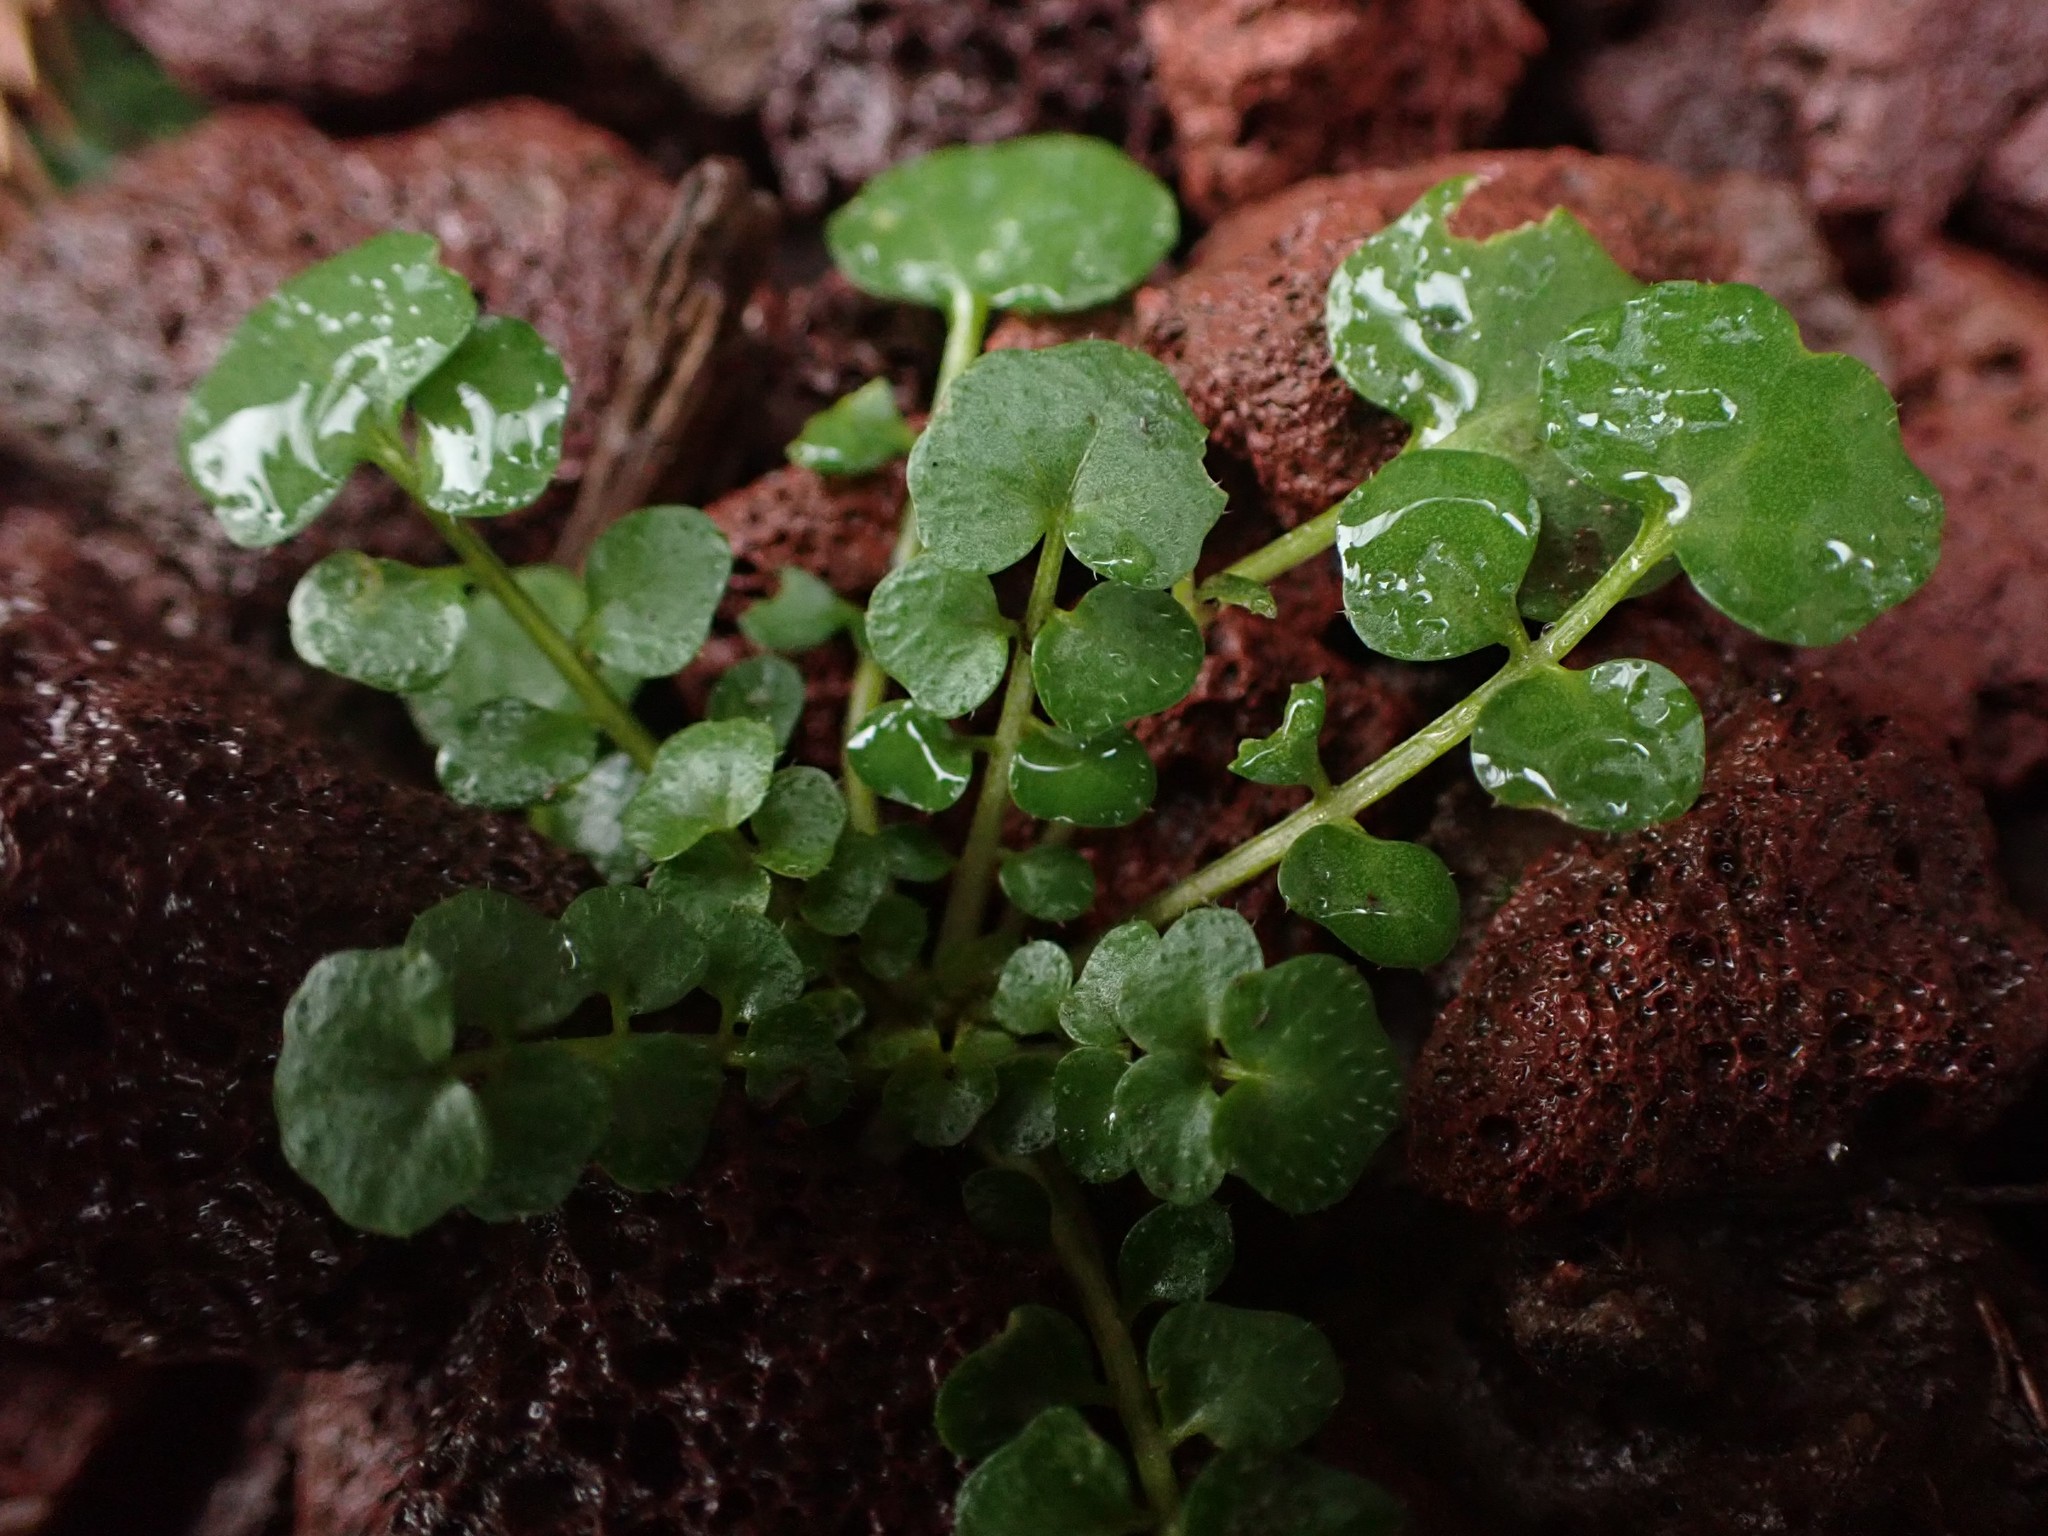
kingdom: Plantae
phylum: Tracheophyta
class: Magnoliopsida
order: Brassicales
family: Brassicaceae
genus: Cardamine
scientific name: Cardamine hirsuta
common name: Hairy bittercress
